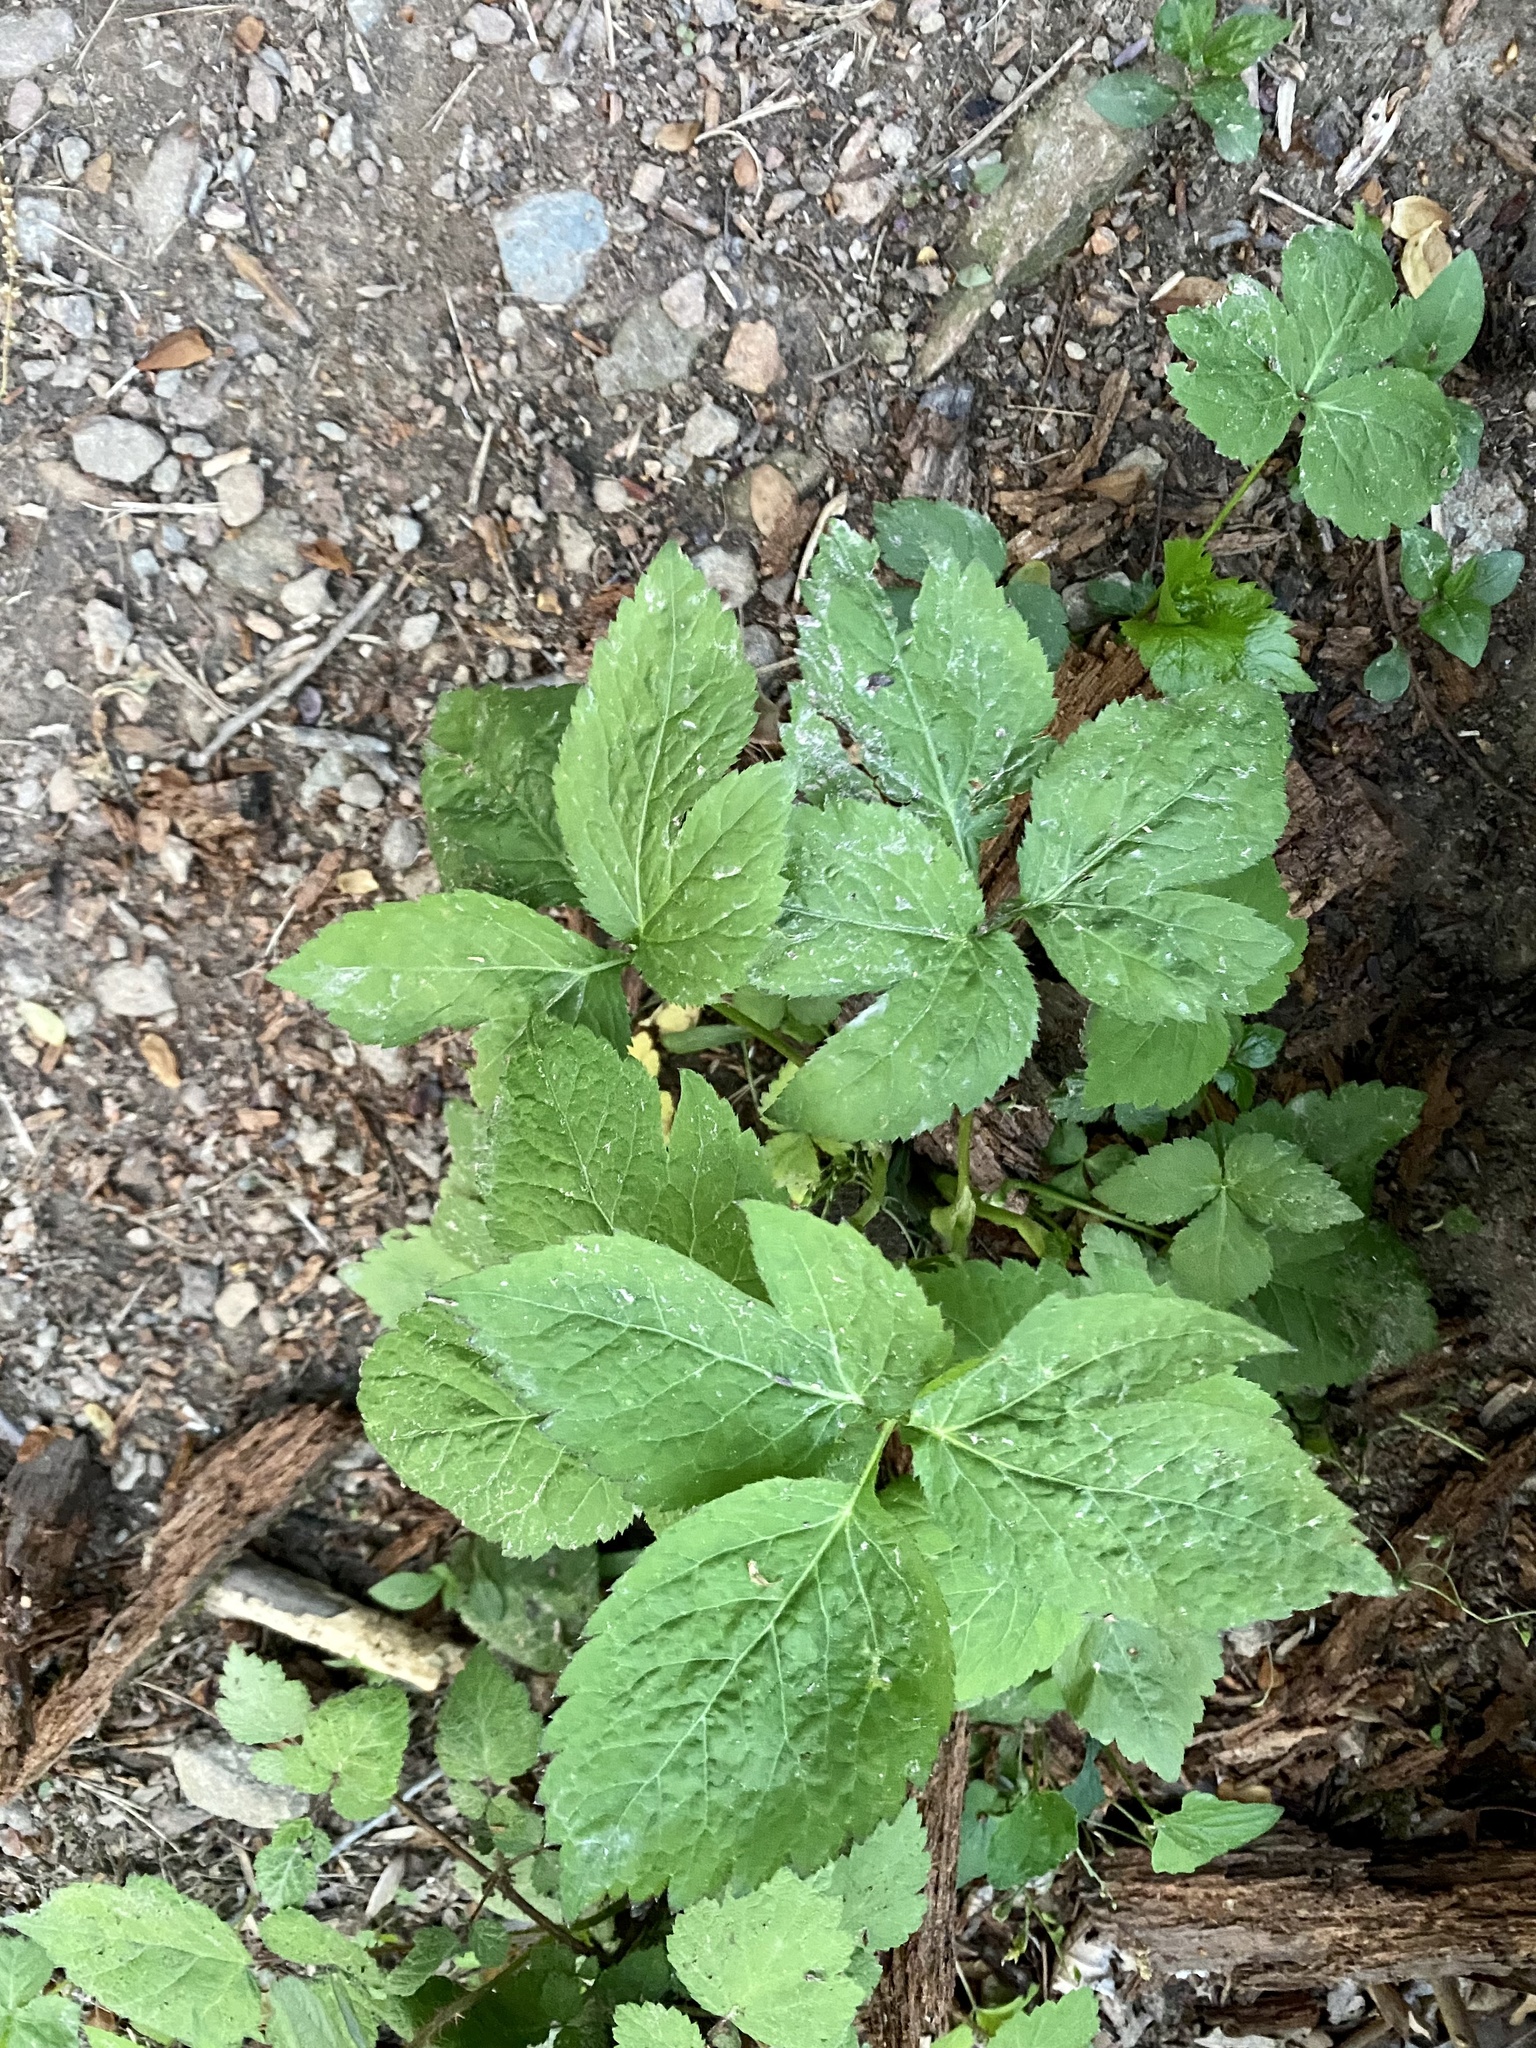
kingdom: Plantae
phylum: Tracheophyta
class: Magnoliopsida
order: Apiales
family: Apiaceae
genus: Cryptotaenia
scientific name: Cryptotaenia canadensis
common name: Honewort
